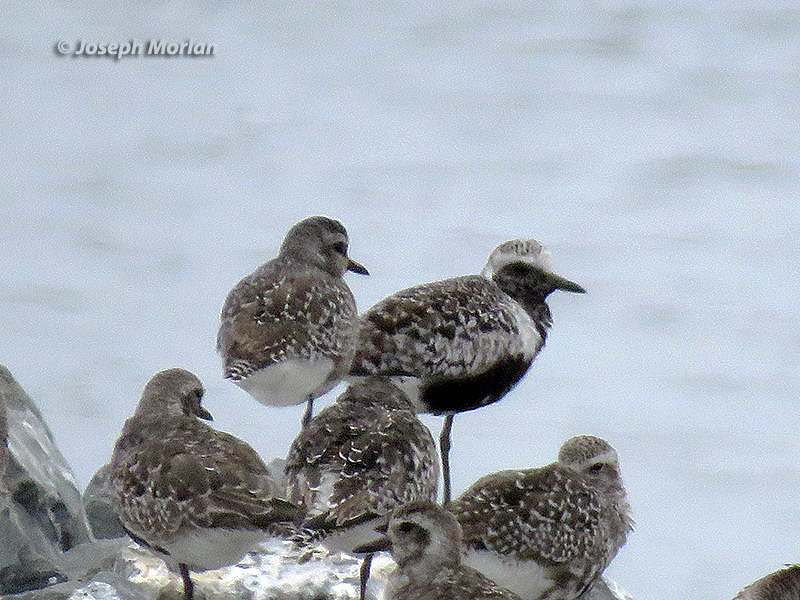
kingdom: Animalia
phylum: Chordata
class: Aves
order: Charadriiformes
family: Charadriidae
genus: Pluvialis
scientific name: Pluvialis squatarola
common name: Grey plover
